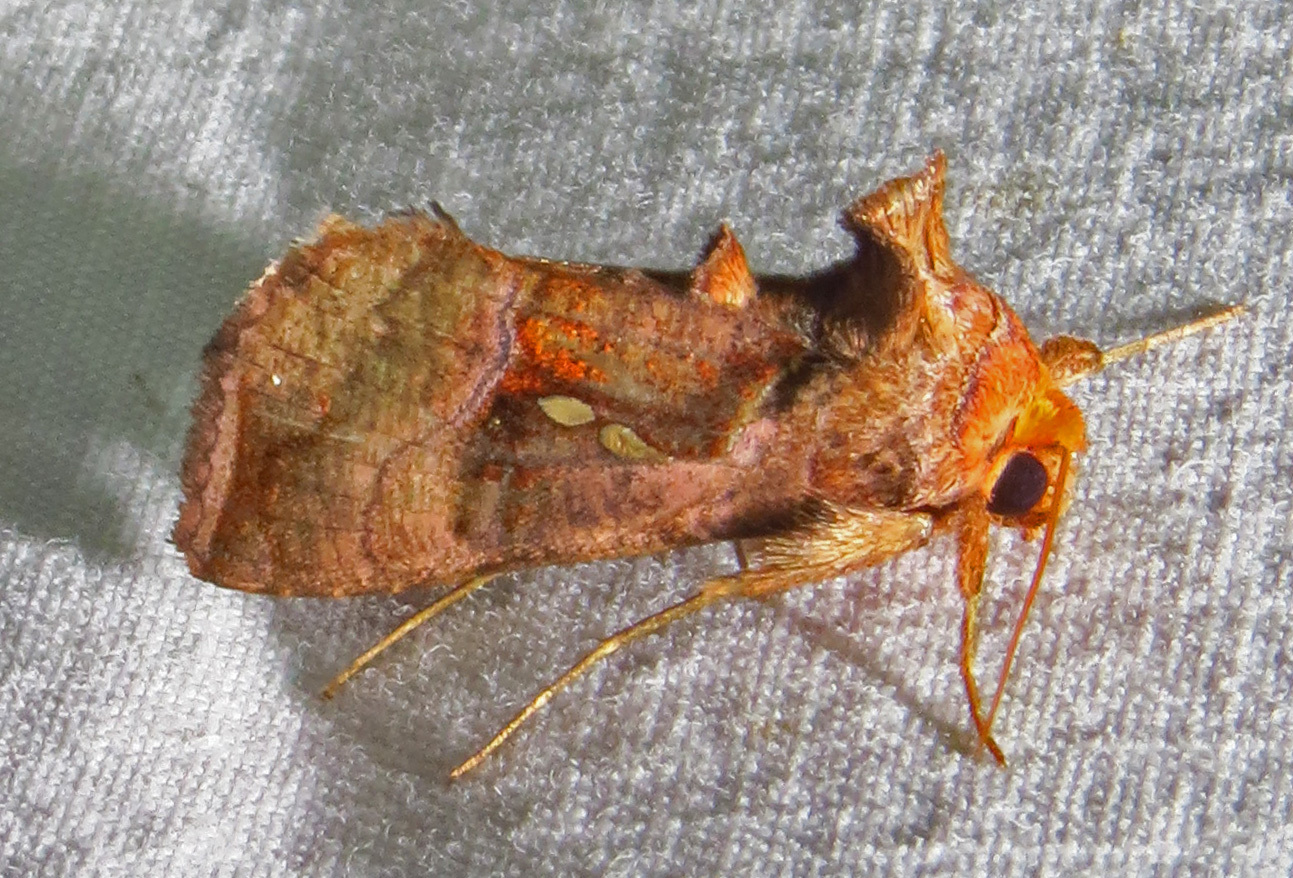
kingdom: Animalia
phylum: Arthropoda
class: Insecta
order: Lepidoptera
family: Noctuidae
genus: Enigmogramma
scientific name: Enigmogramma basigera
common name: Pink-washed looper moth
